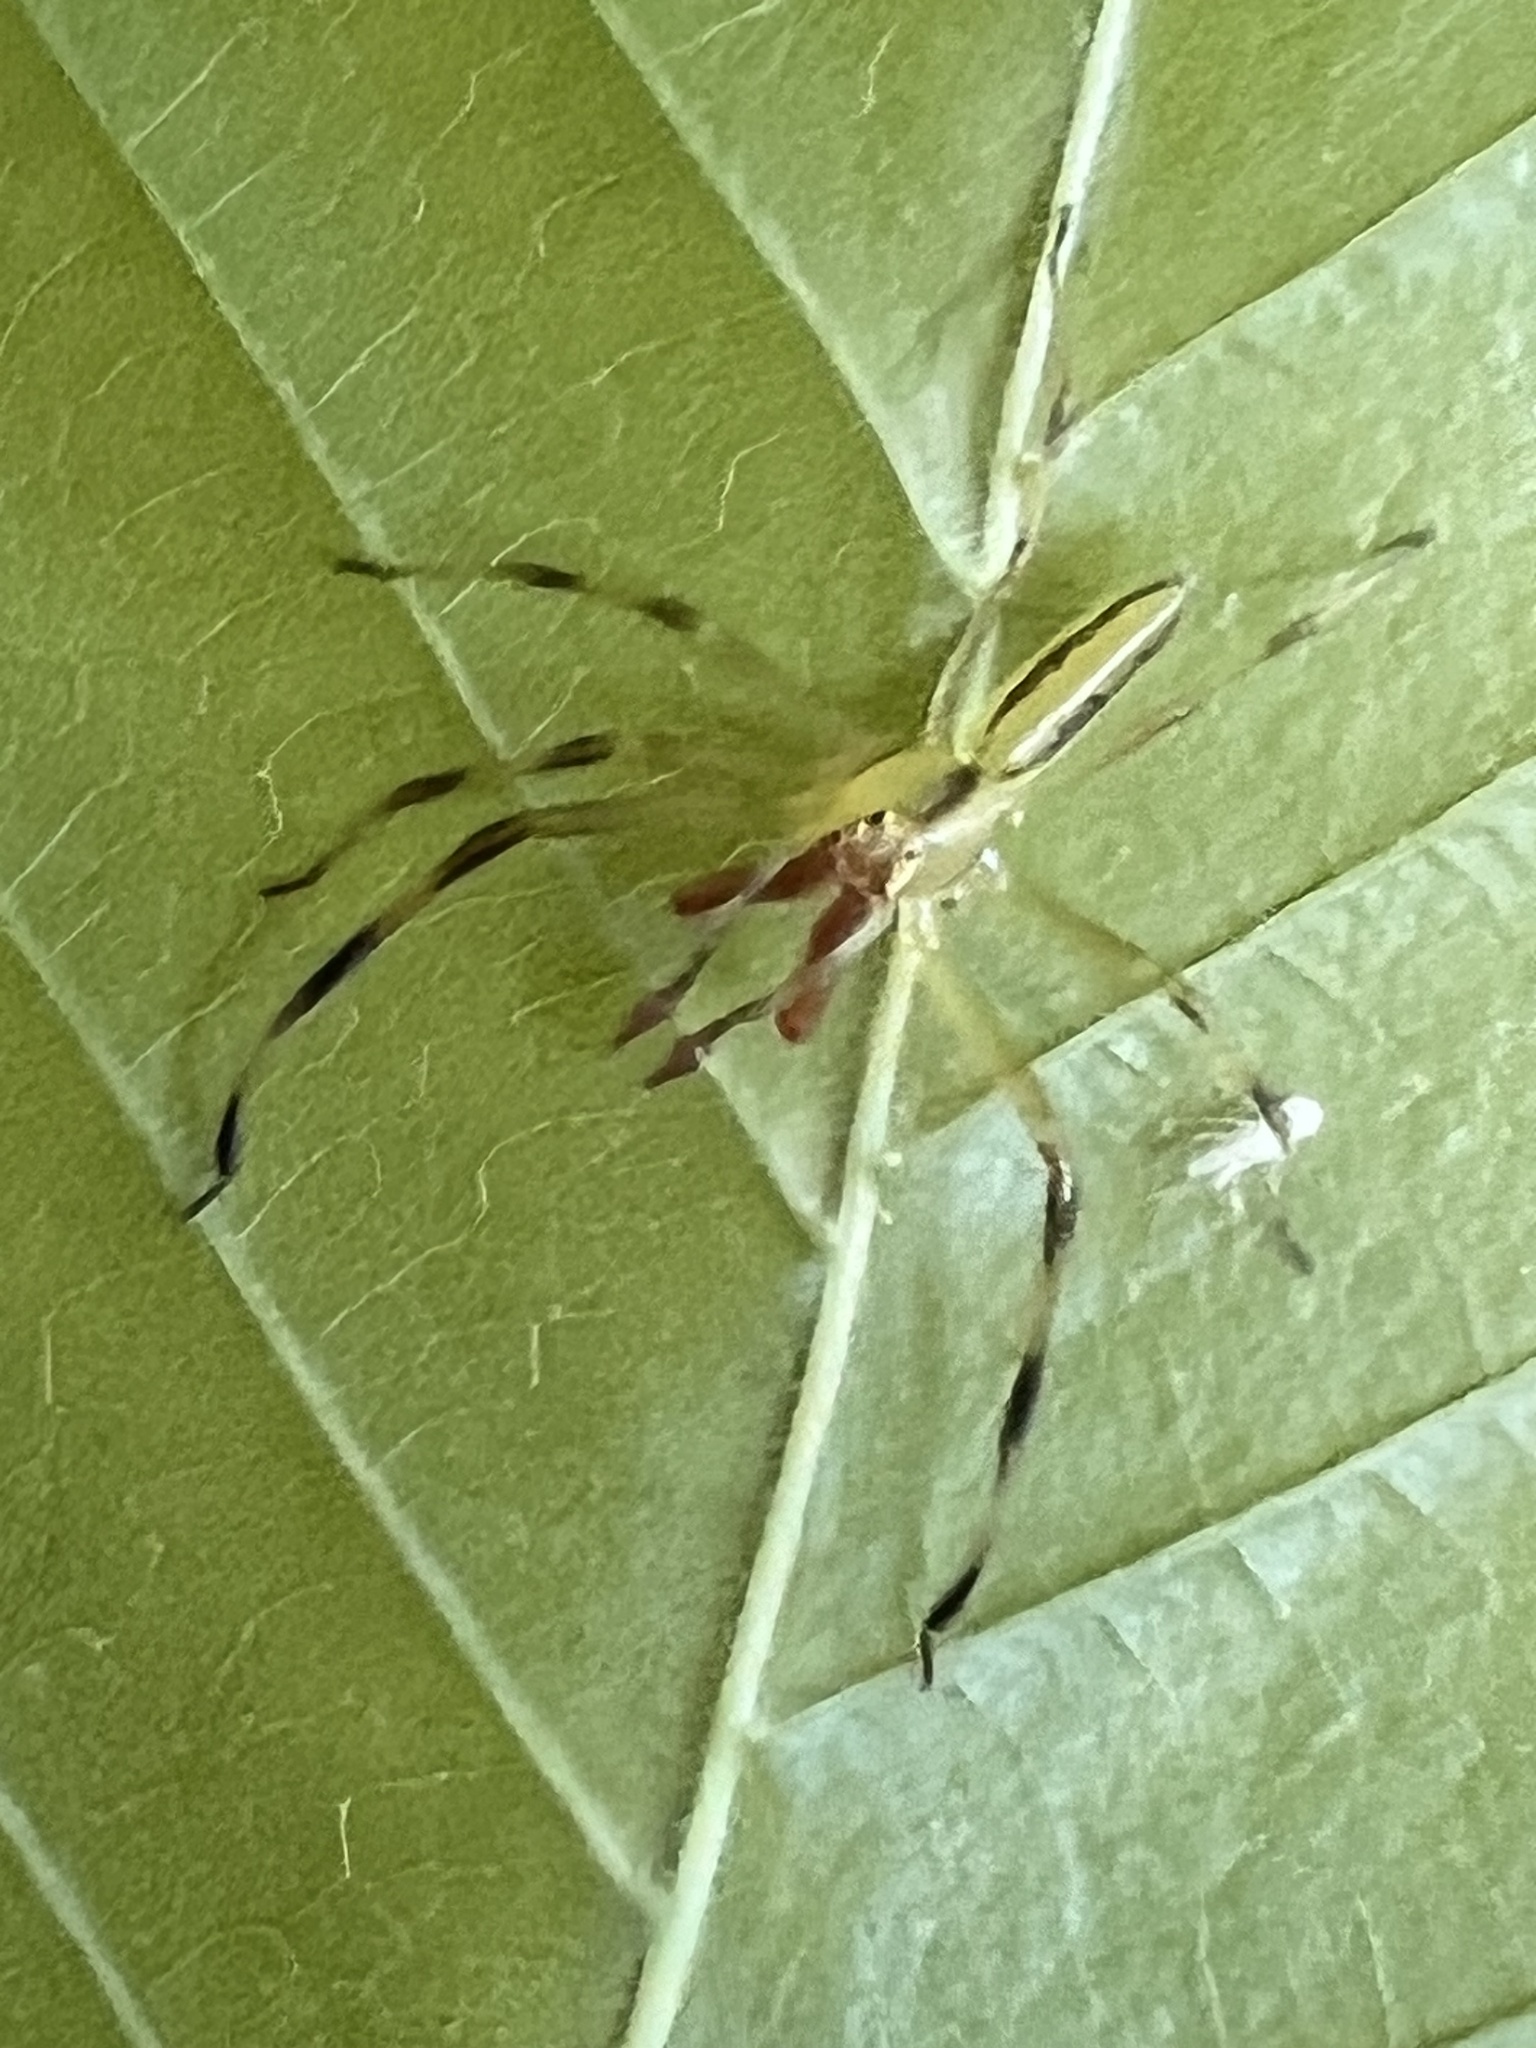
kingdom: Animalia
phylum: Arthropoda
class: Arachnida
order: Araneae
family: Salticidae
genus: Lyssomanes
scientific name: Lyssomanes viridis
